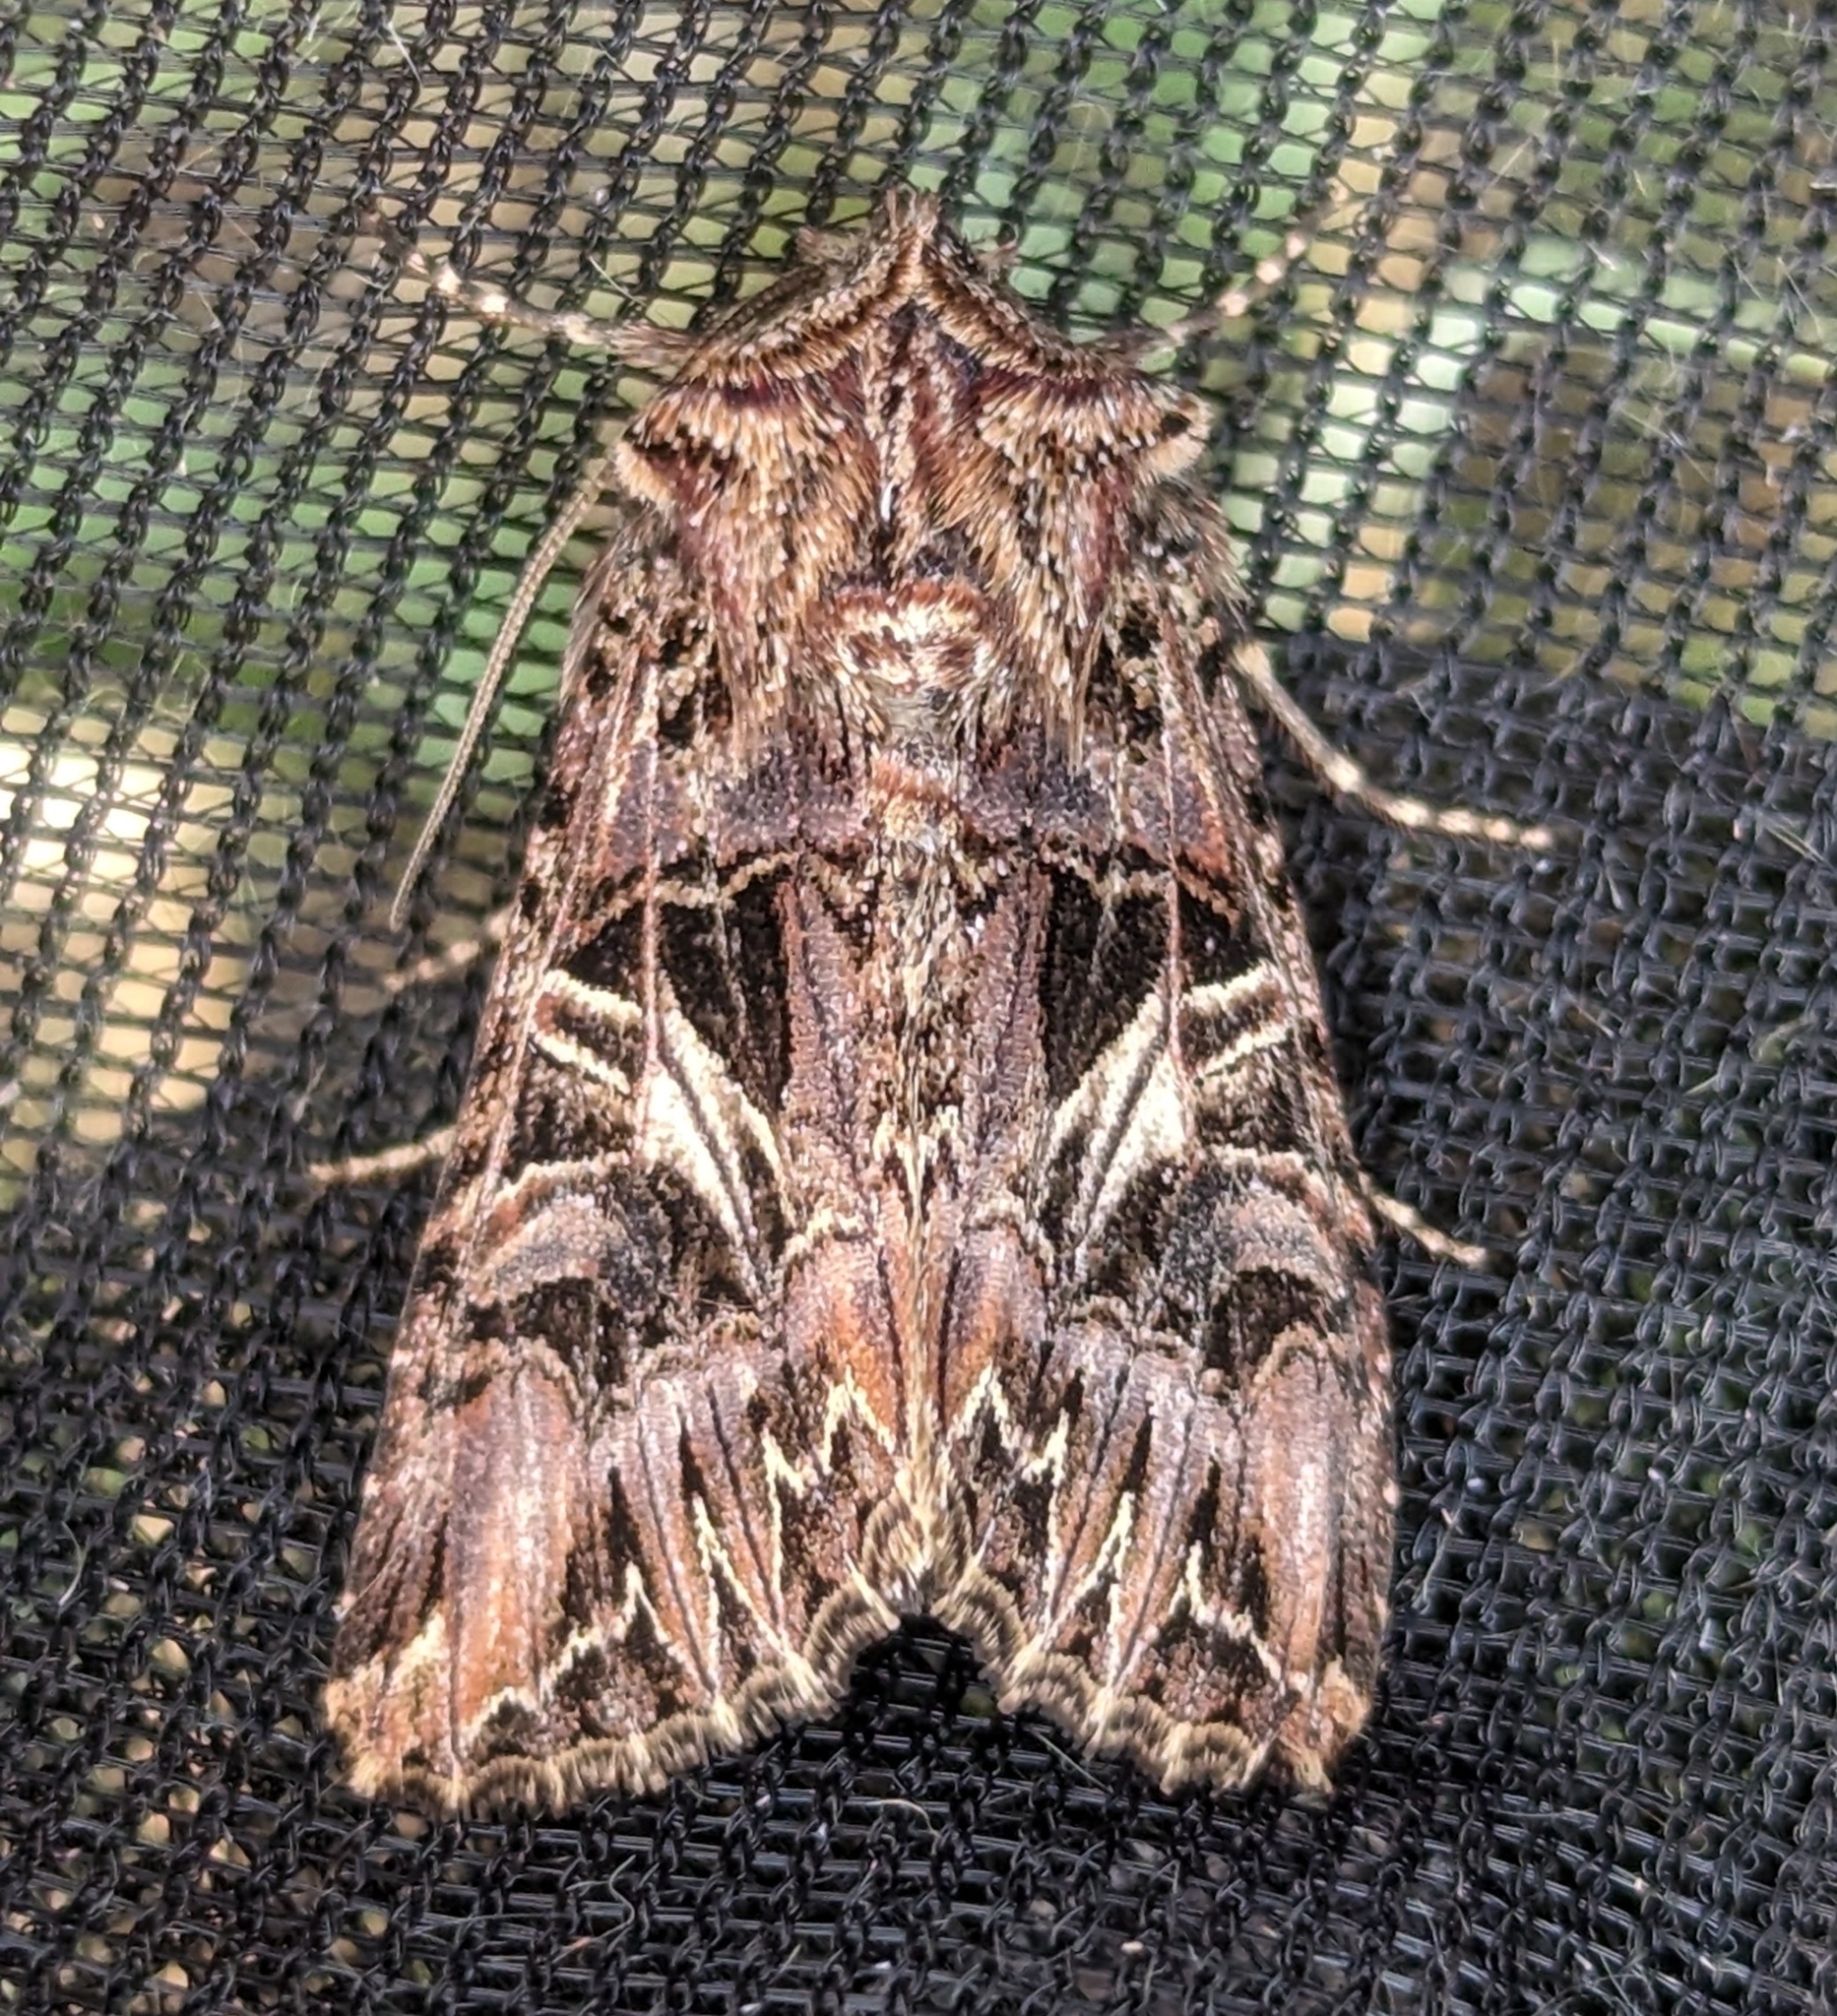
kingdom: Animalia
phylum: Arthropoda
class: Insecta
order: Lepidoptera
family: Noctuidae
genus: Anarta
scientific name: Anarta farnhami
